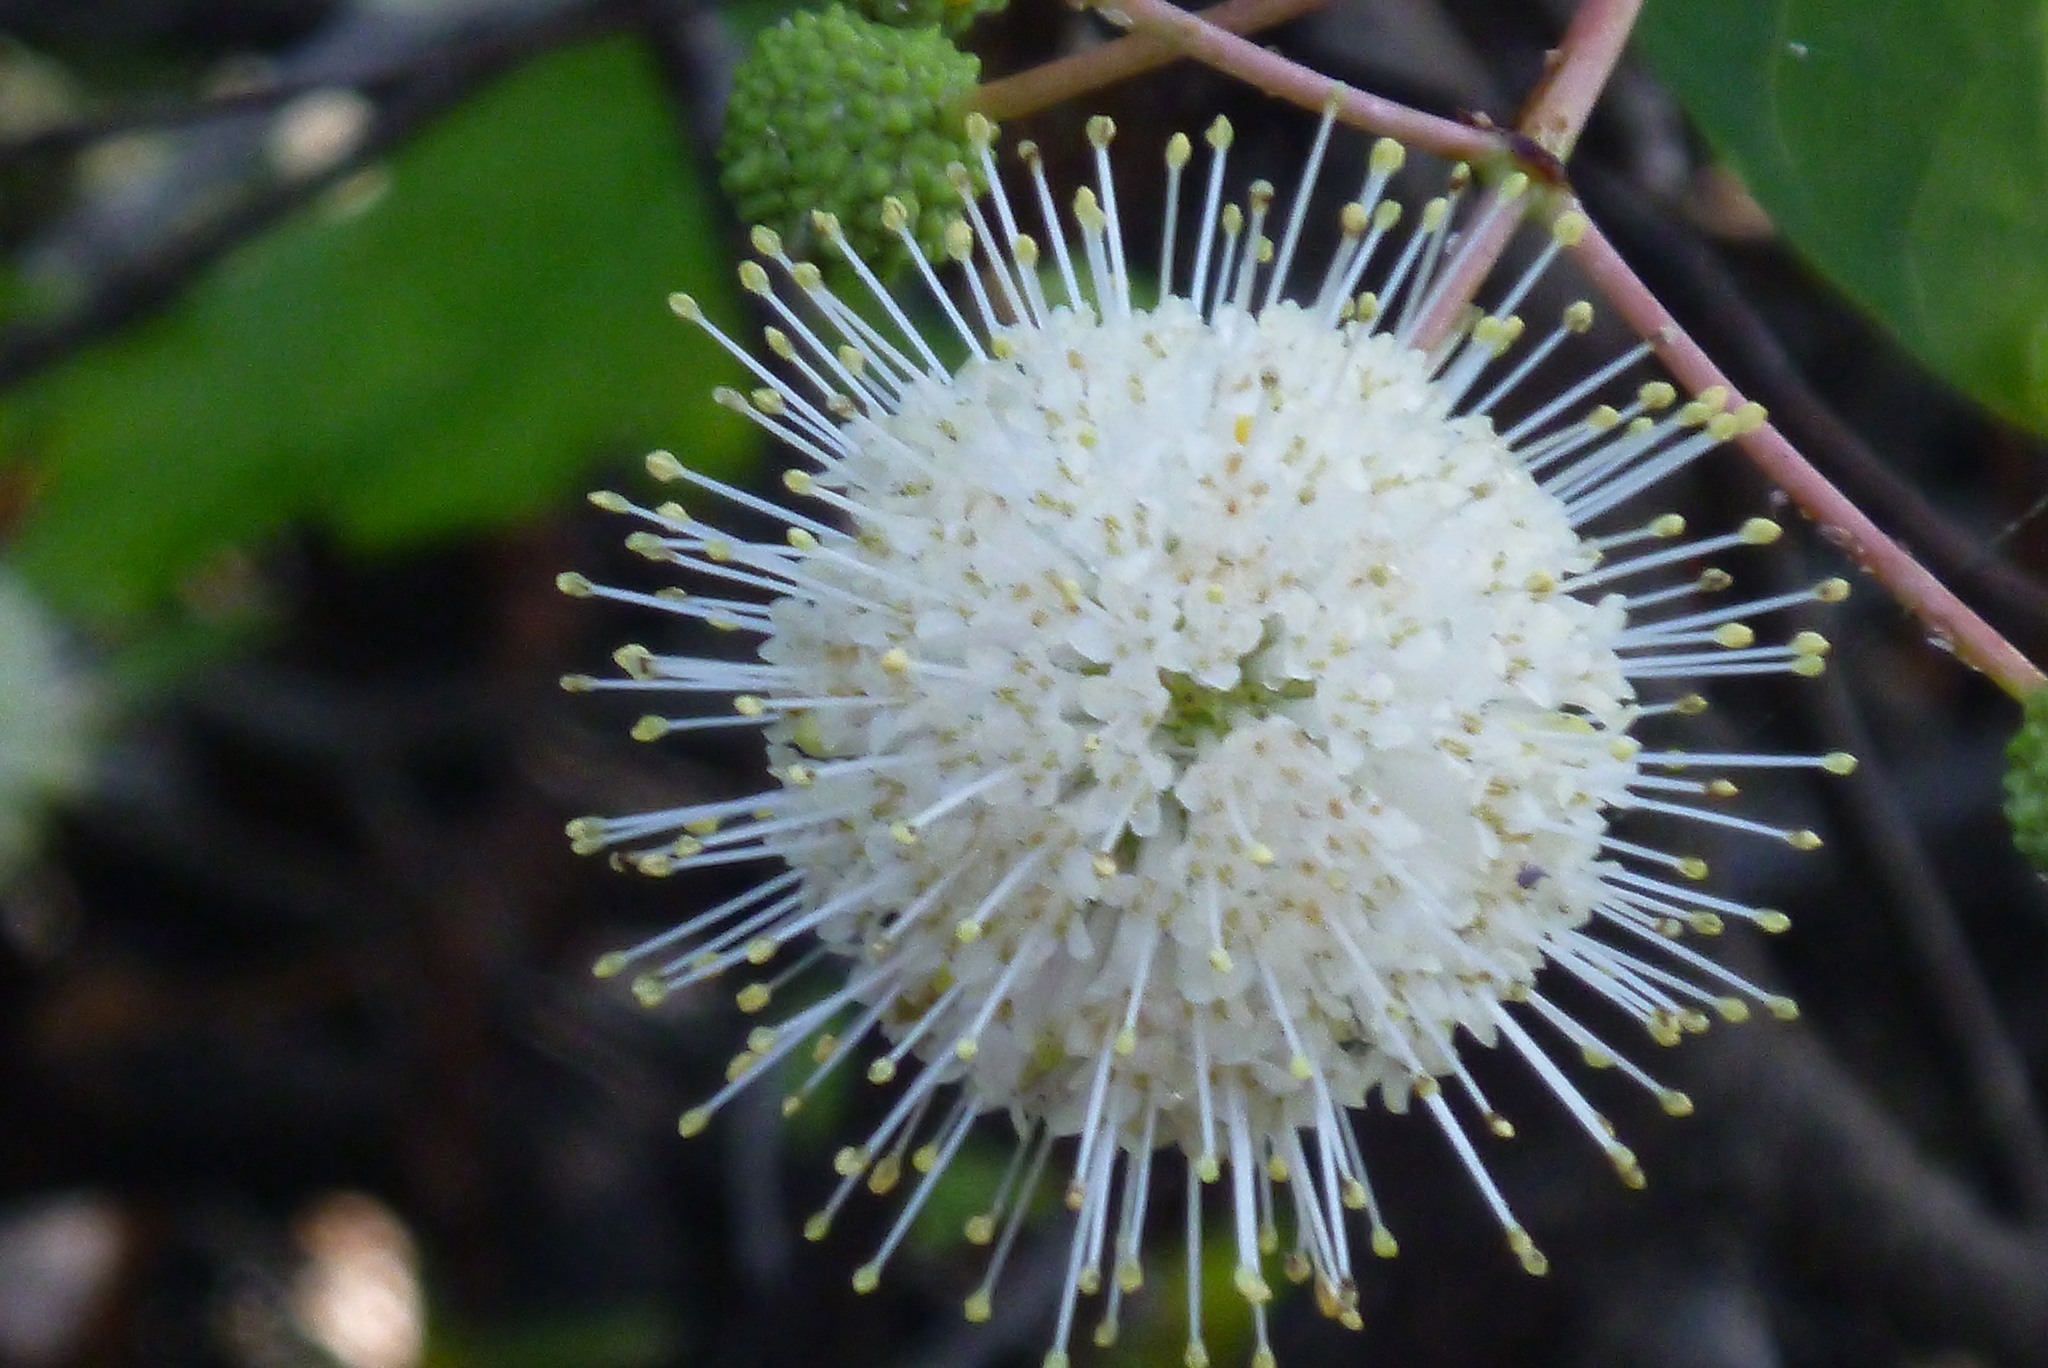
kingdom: Plantae
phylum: Tracheophyta
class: Magnoliopsida
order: Gentianales
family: Rubiaceae
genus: Cephalanthus
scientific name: Cephalanthus occidentalis
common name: Button-willow
